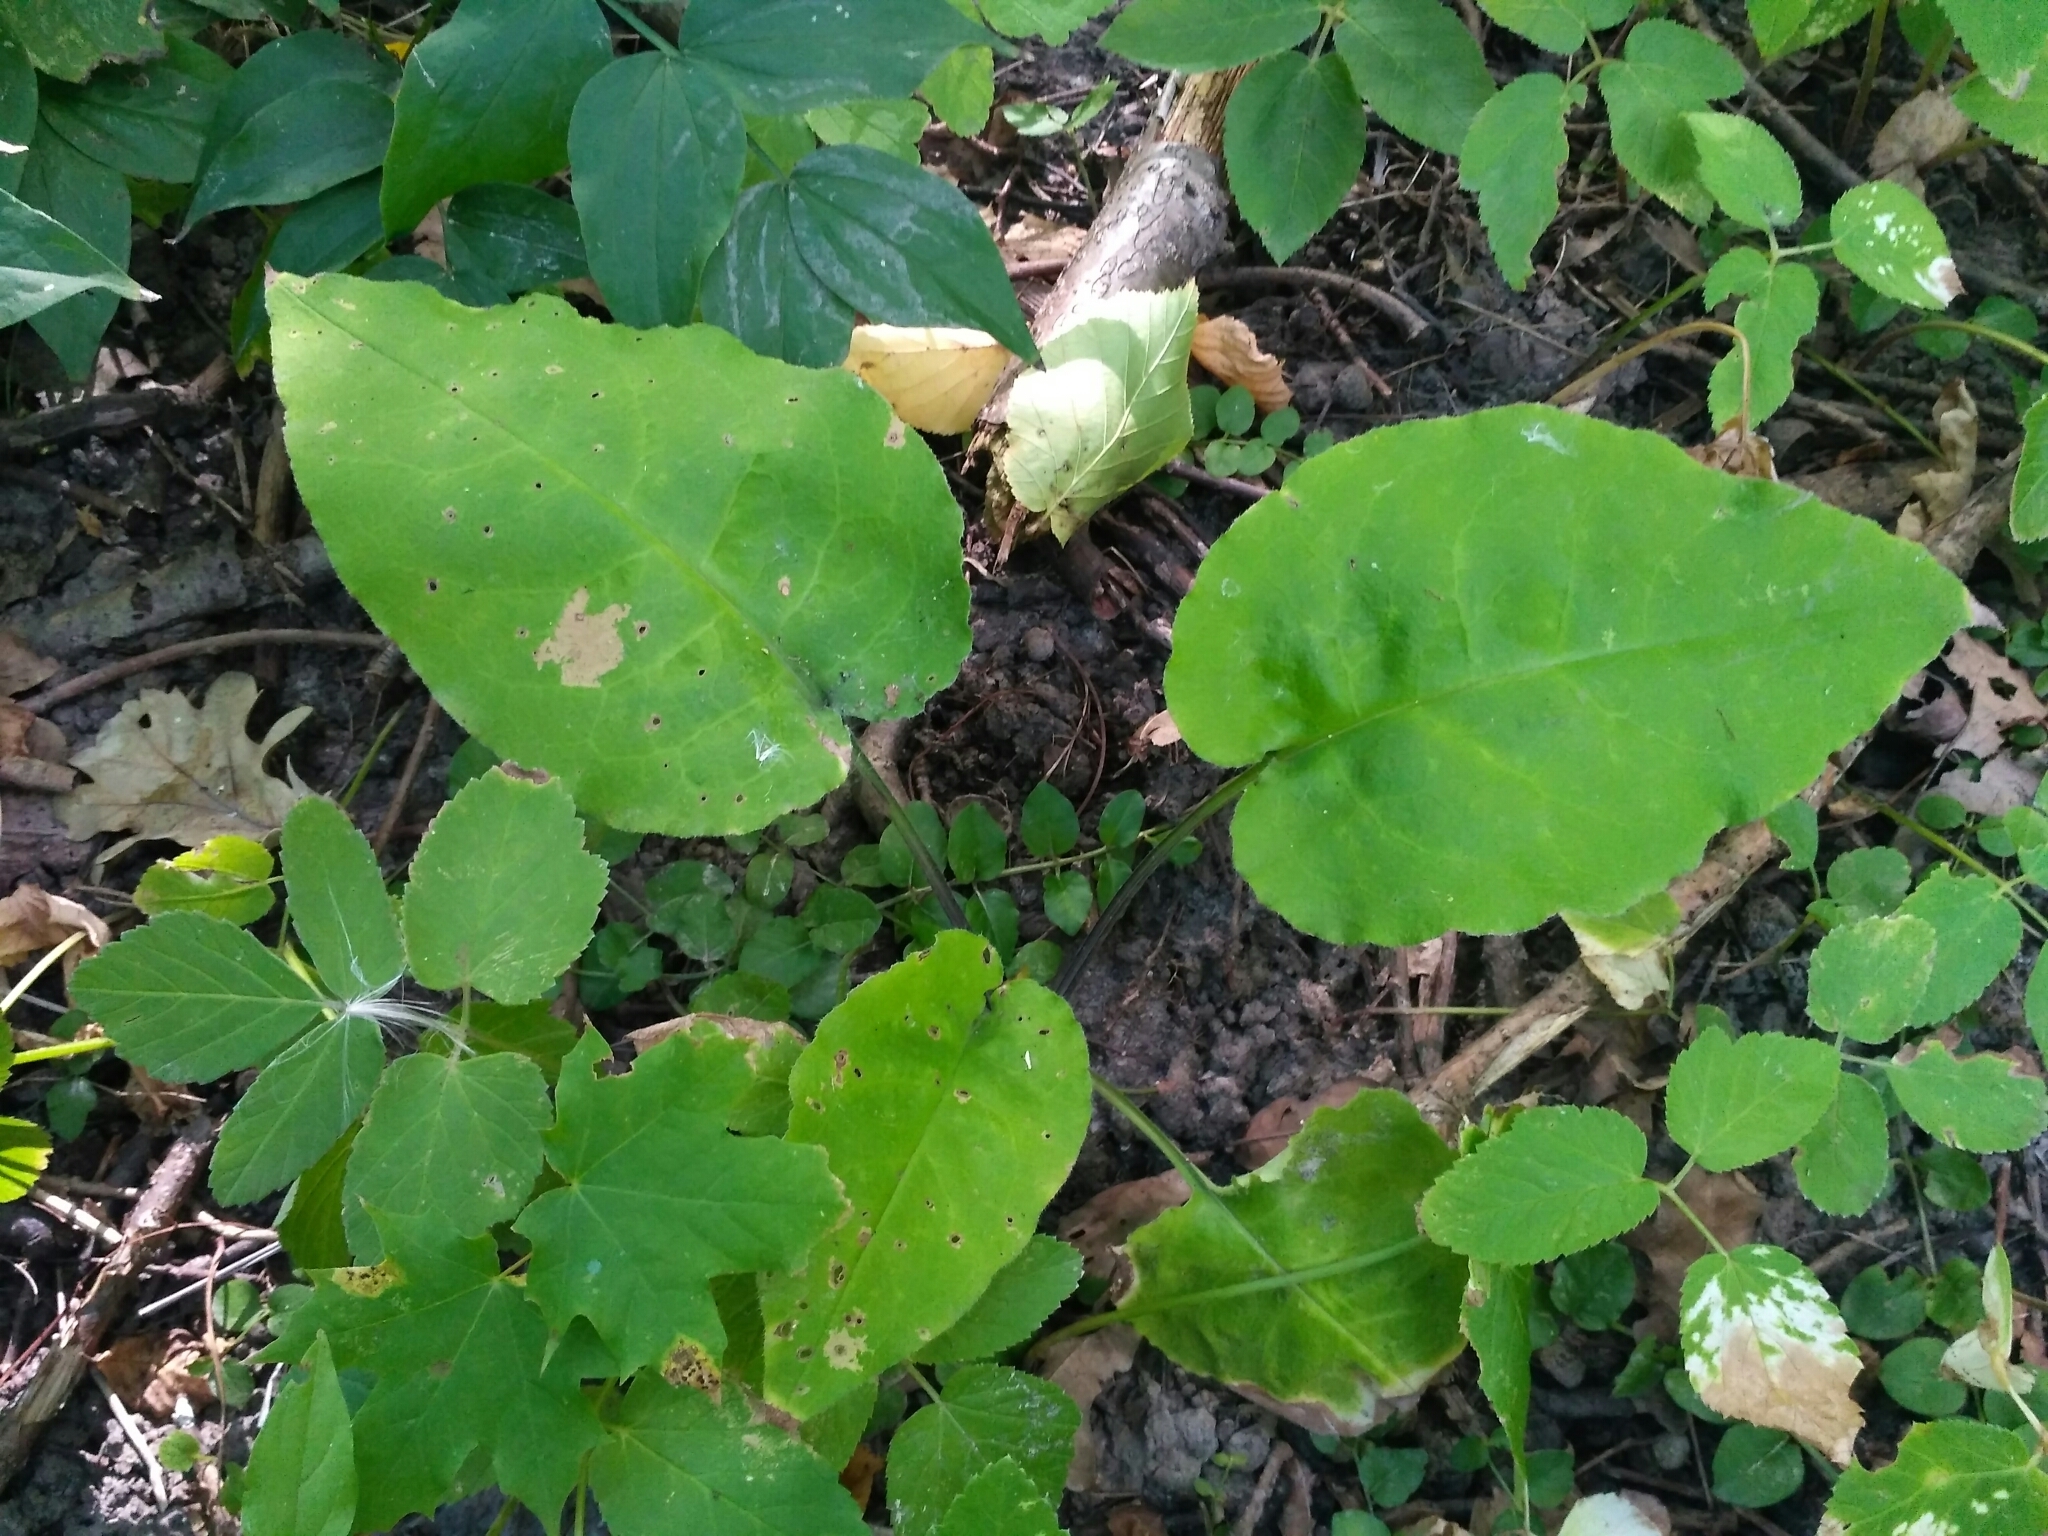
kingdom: Plantae
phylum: Tracheophyta
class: Magnoliopsida
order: Boraginales
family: Boraginaceae
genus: Pulmonaria
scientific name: Pulmonaria obscura
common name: Suffolk lungwort
